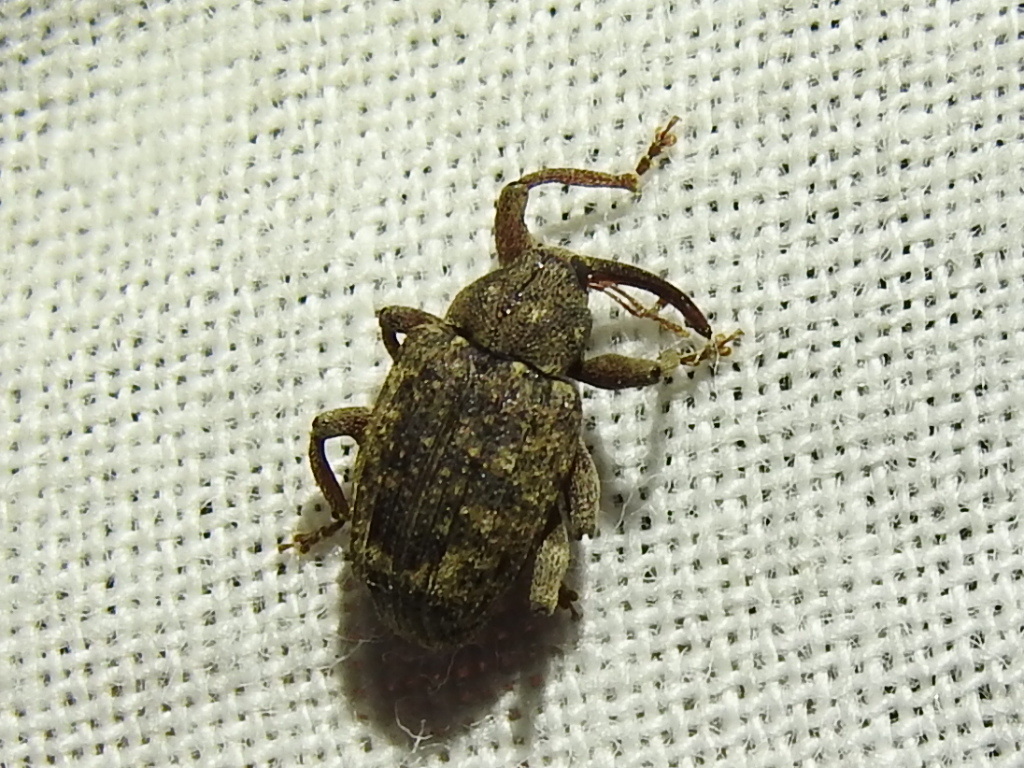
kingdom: Animalia
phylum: Arthropoda
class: Insecta
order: Coleoptera
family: Curculionidae
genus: Conotrachelus
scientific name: Conotrachelus naso
